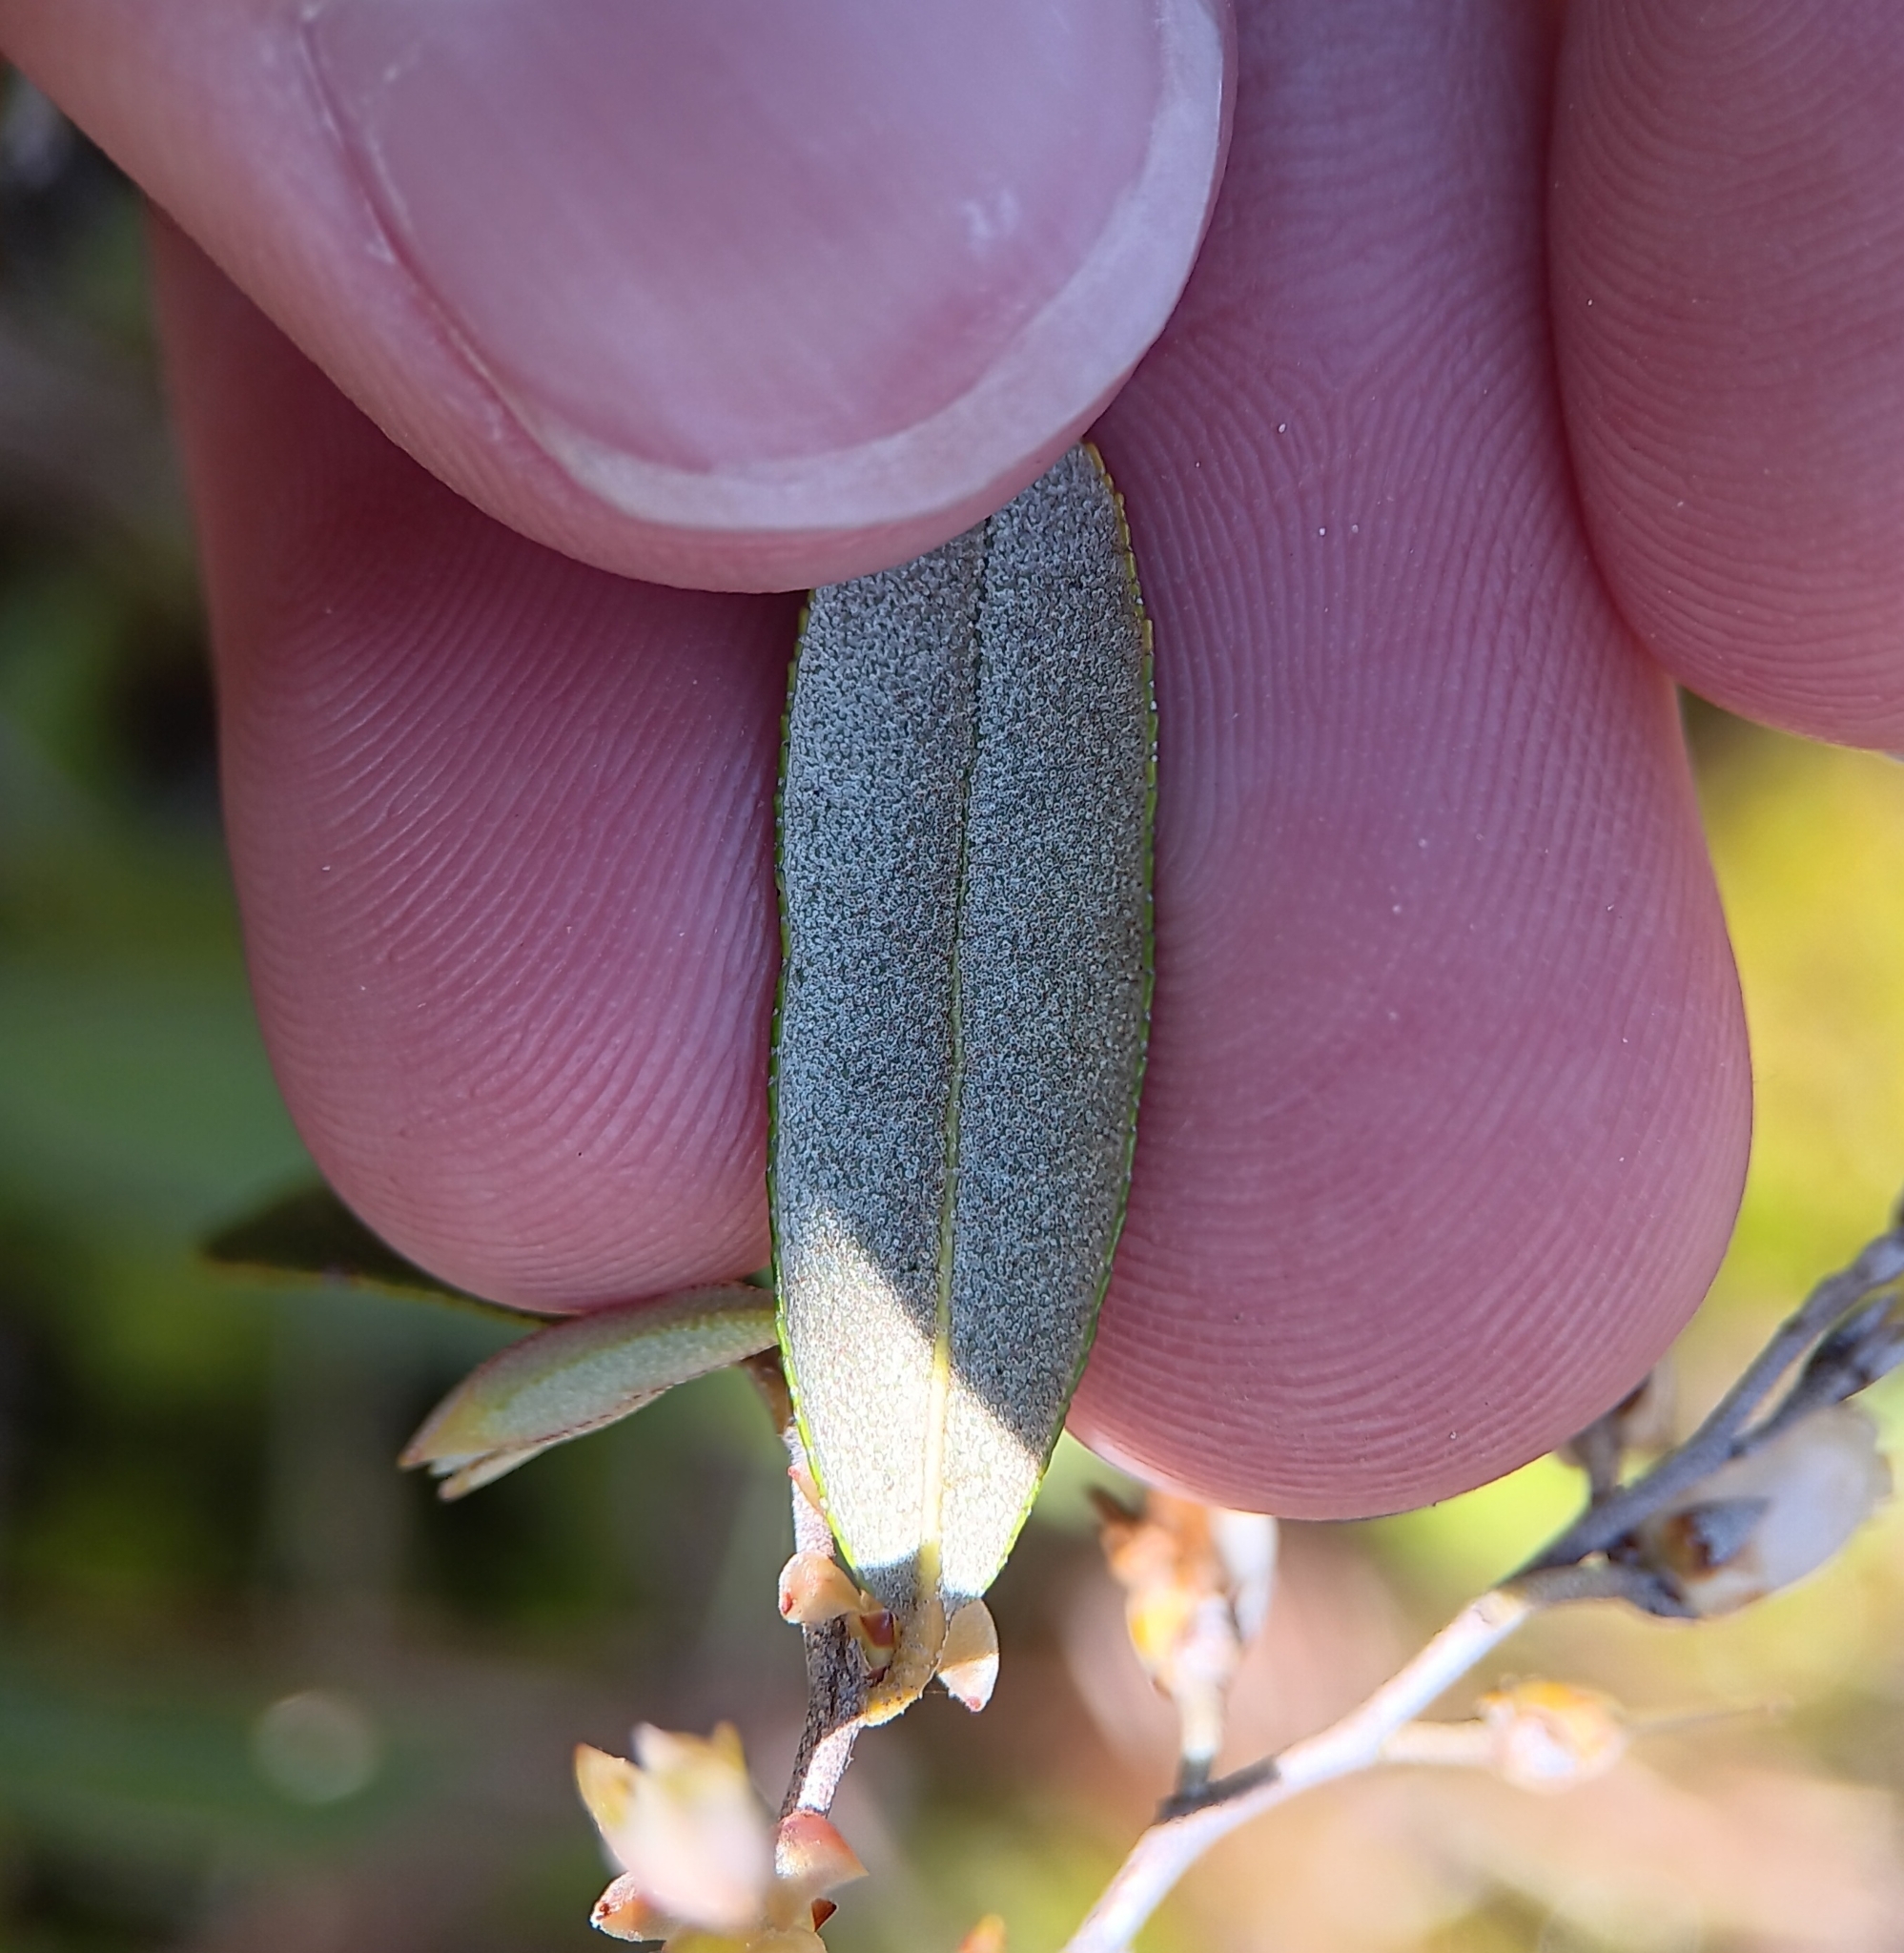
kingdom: Plantae
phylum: Tracheophyta
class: Magnoliopsida
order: Ericales
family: Ericaceae
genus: Chamaedaphne
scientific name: Chamaedaphne calyculata
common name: Leatherleaf
